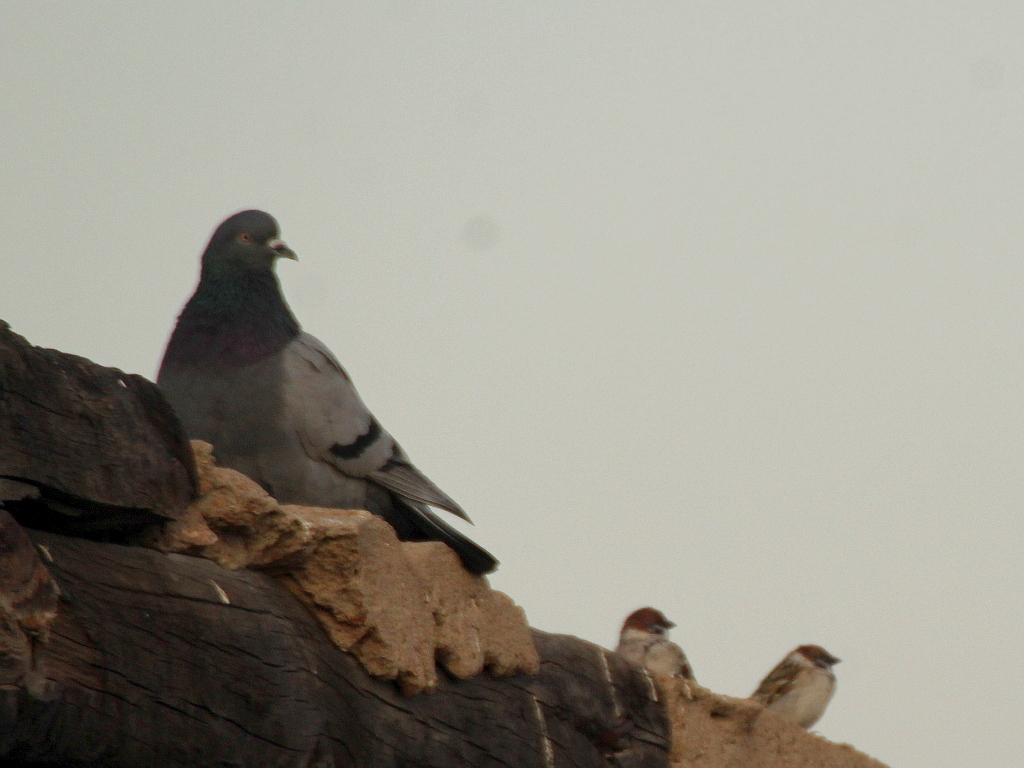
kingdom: Animalia
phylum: Chordata
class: Aves
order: Columbiformes
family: Columbidae
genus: Columba
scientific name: Columba livia
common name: Rock pigeon
